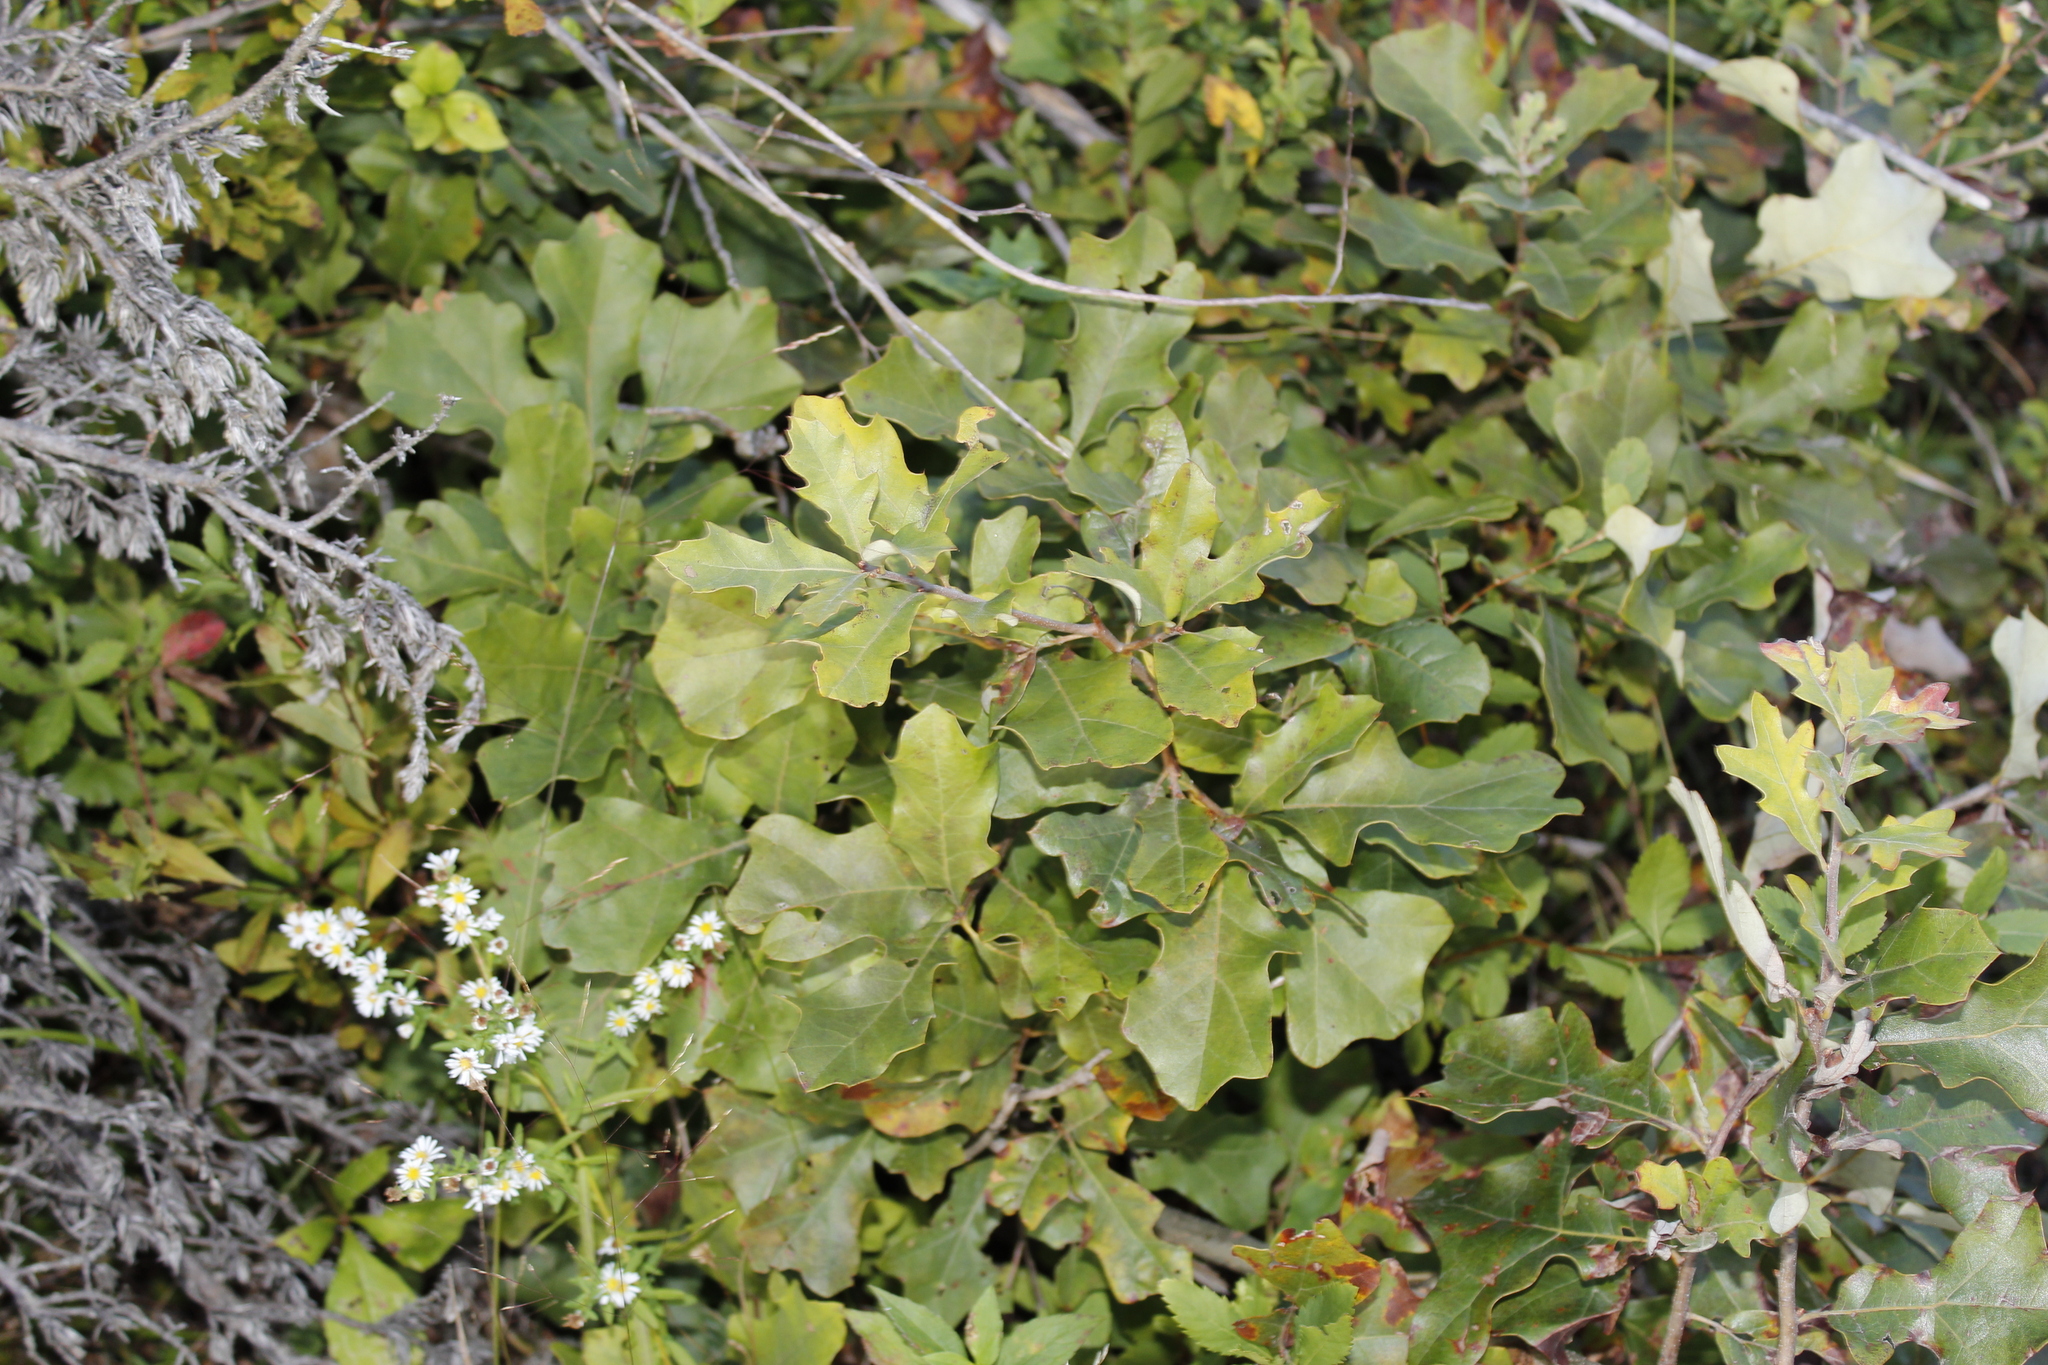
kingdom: Plantae
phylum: Tracheophyta
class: Magnoliopsida
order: Fagales
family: Fagaceae
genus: Quercus
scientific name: Quercus ilicifolia
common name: Bear oak
